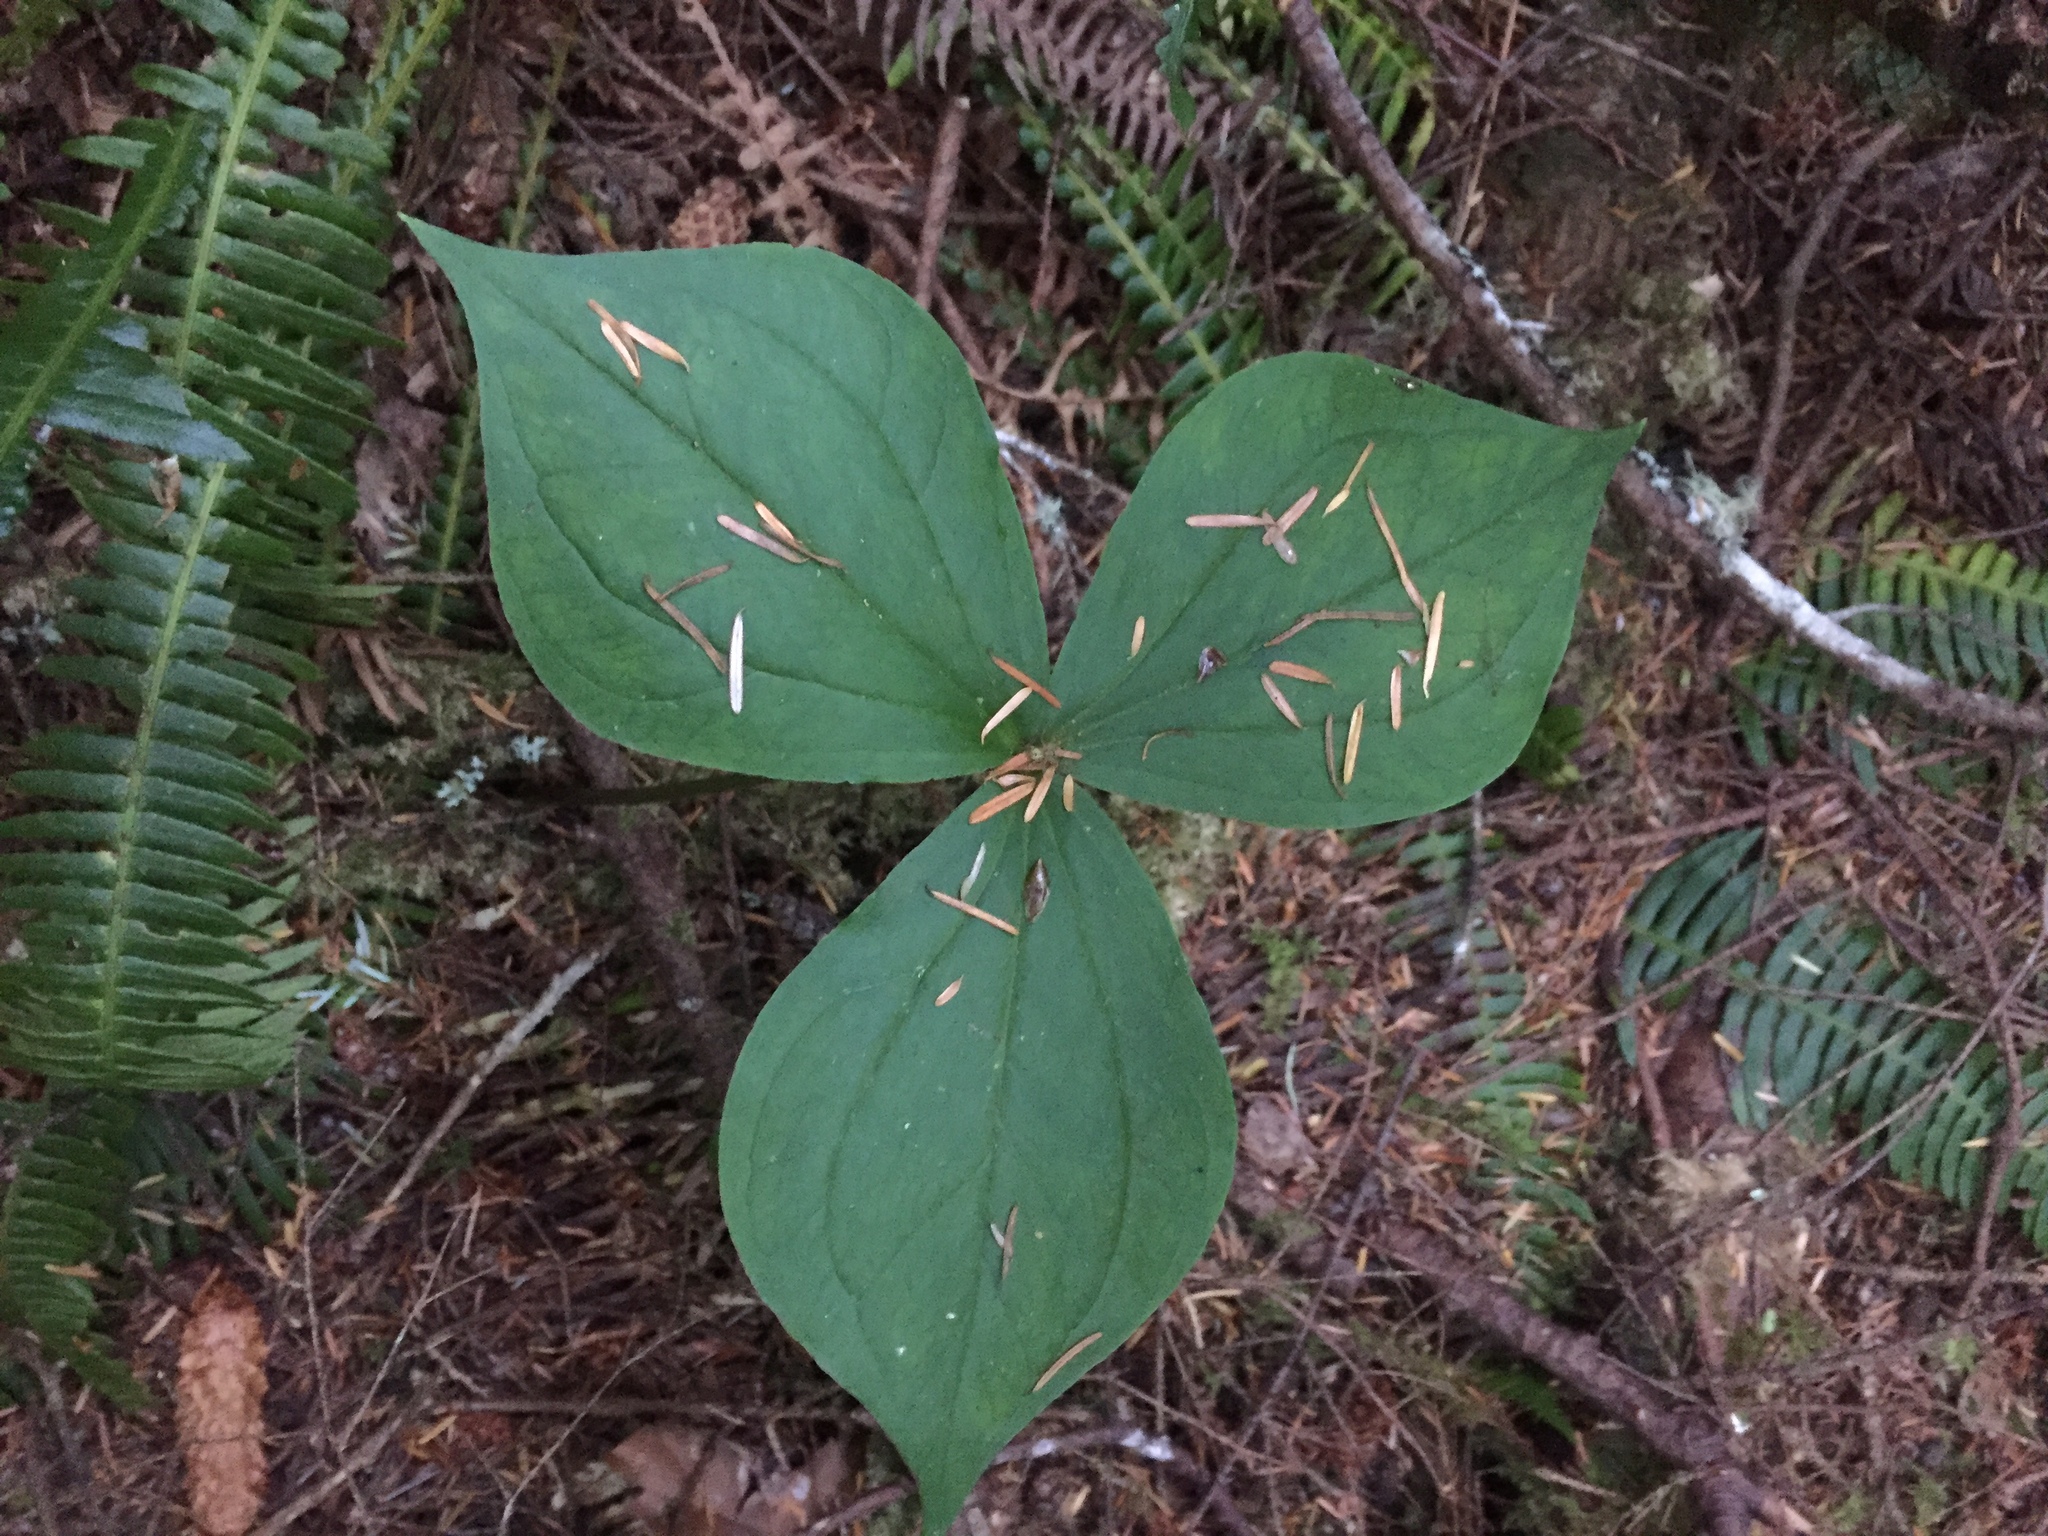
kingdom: Plantae
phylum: Tracheophyta
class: Liliopsida
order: Liliales
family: Melanthiaceae
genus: Trillium
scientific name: Trillium ovatum
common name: Pacific trillium
